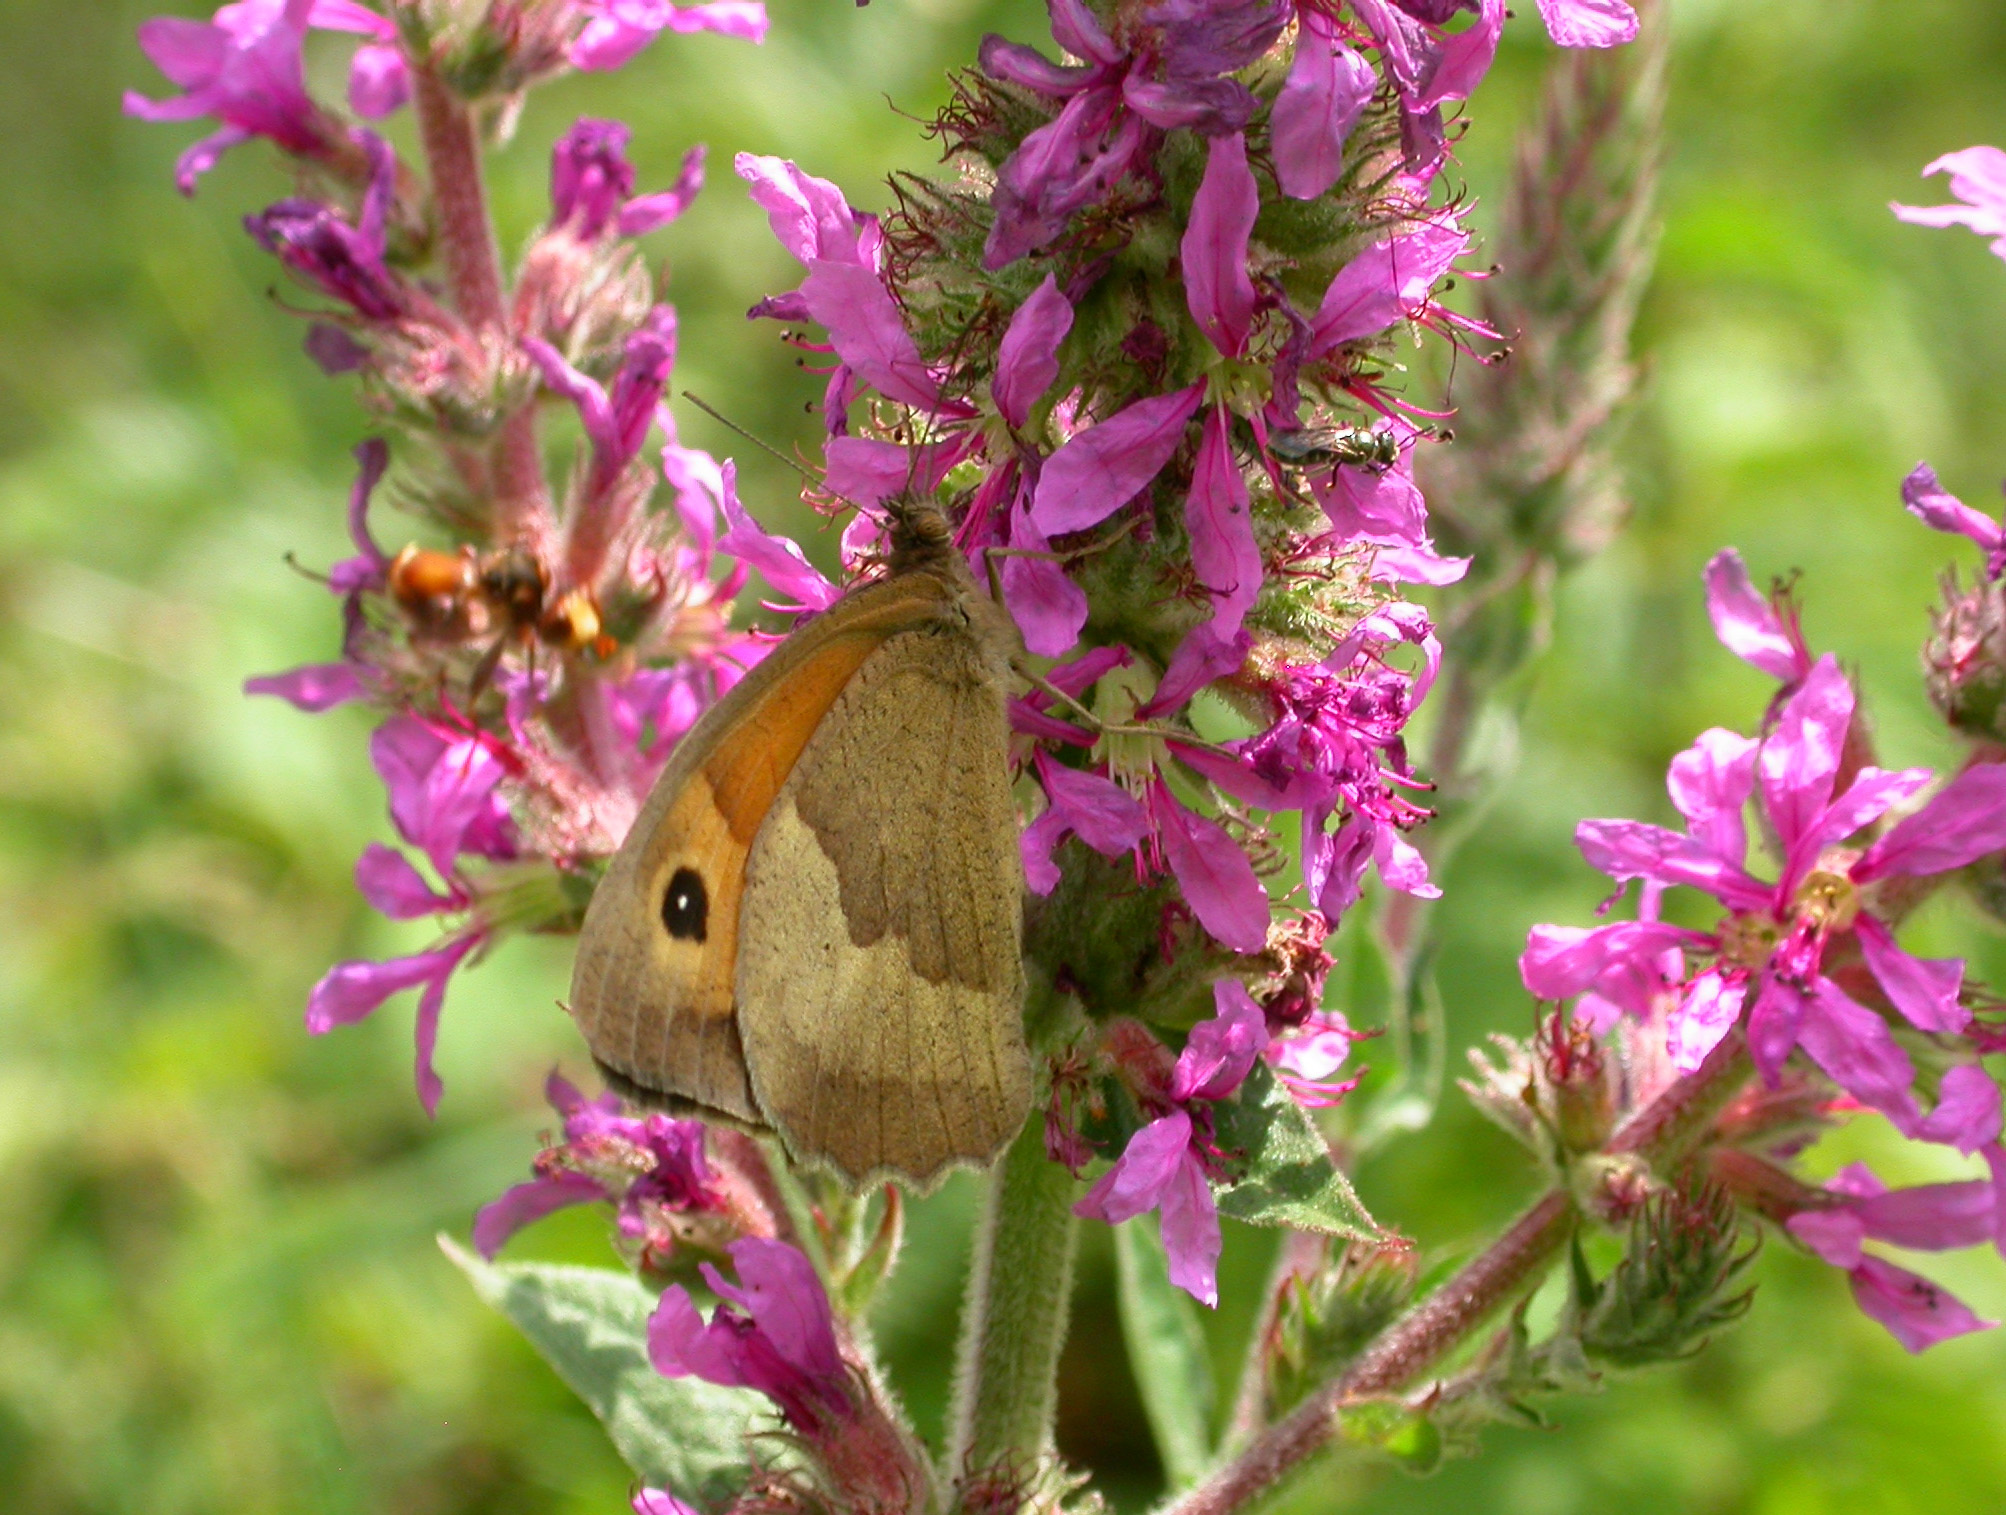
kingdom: Animalia
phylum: Arthropoda
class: Insecta
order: Lepidoptera
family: Nymphalidae
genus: Maniola
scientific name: Maniola jurtina
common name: Meadow brown
